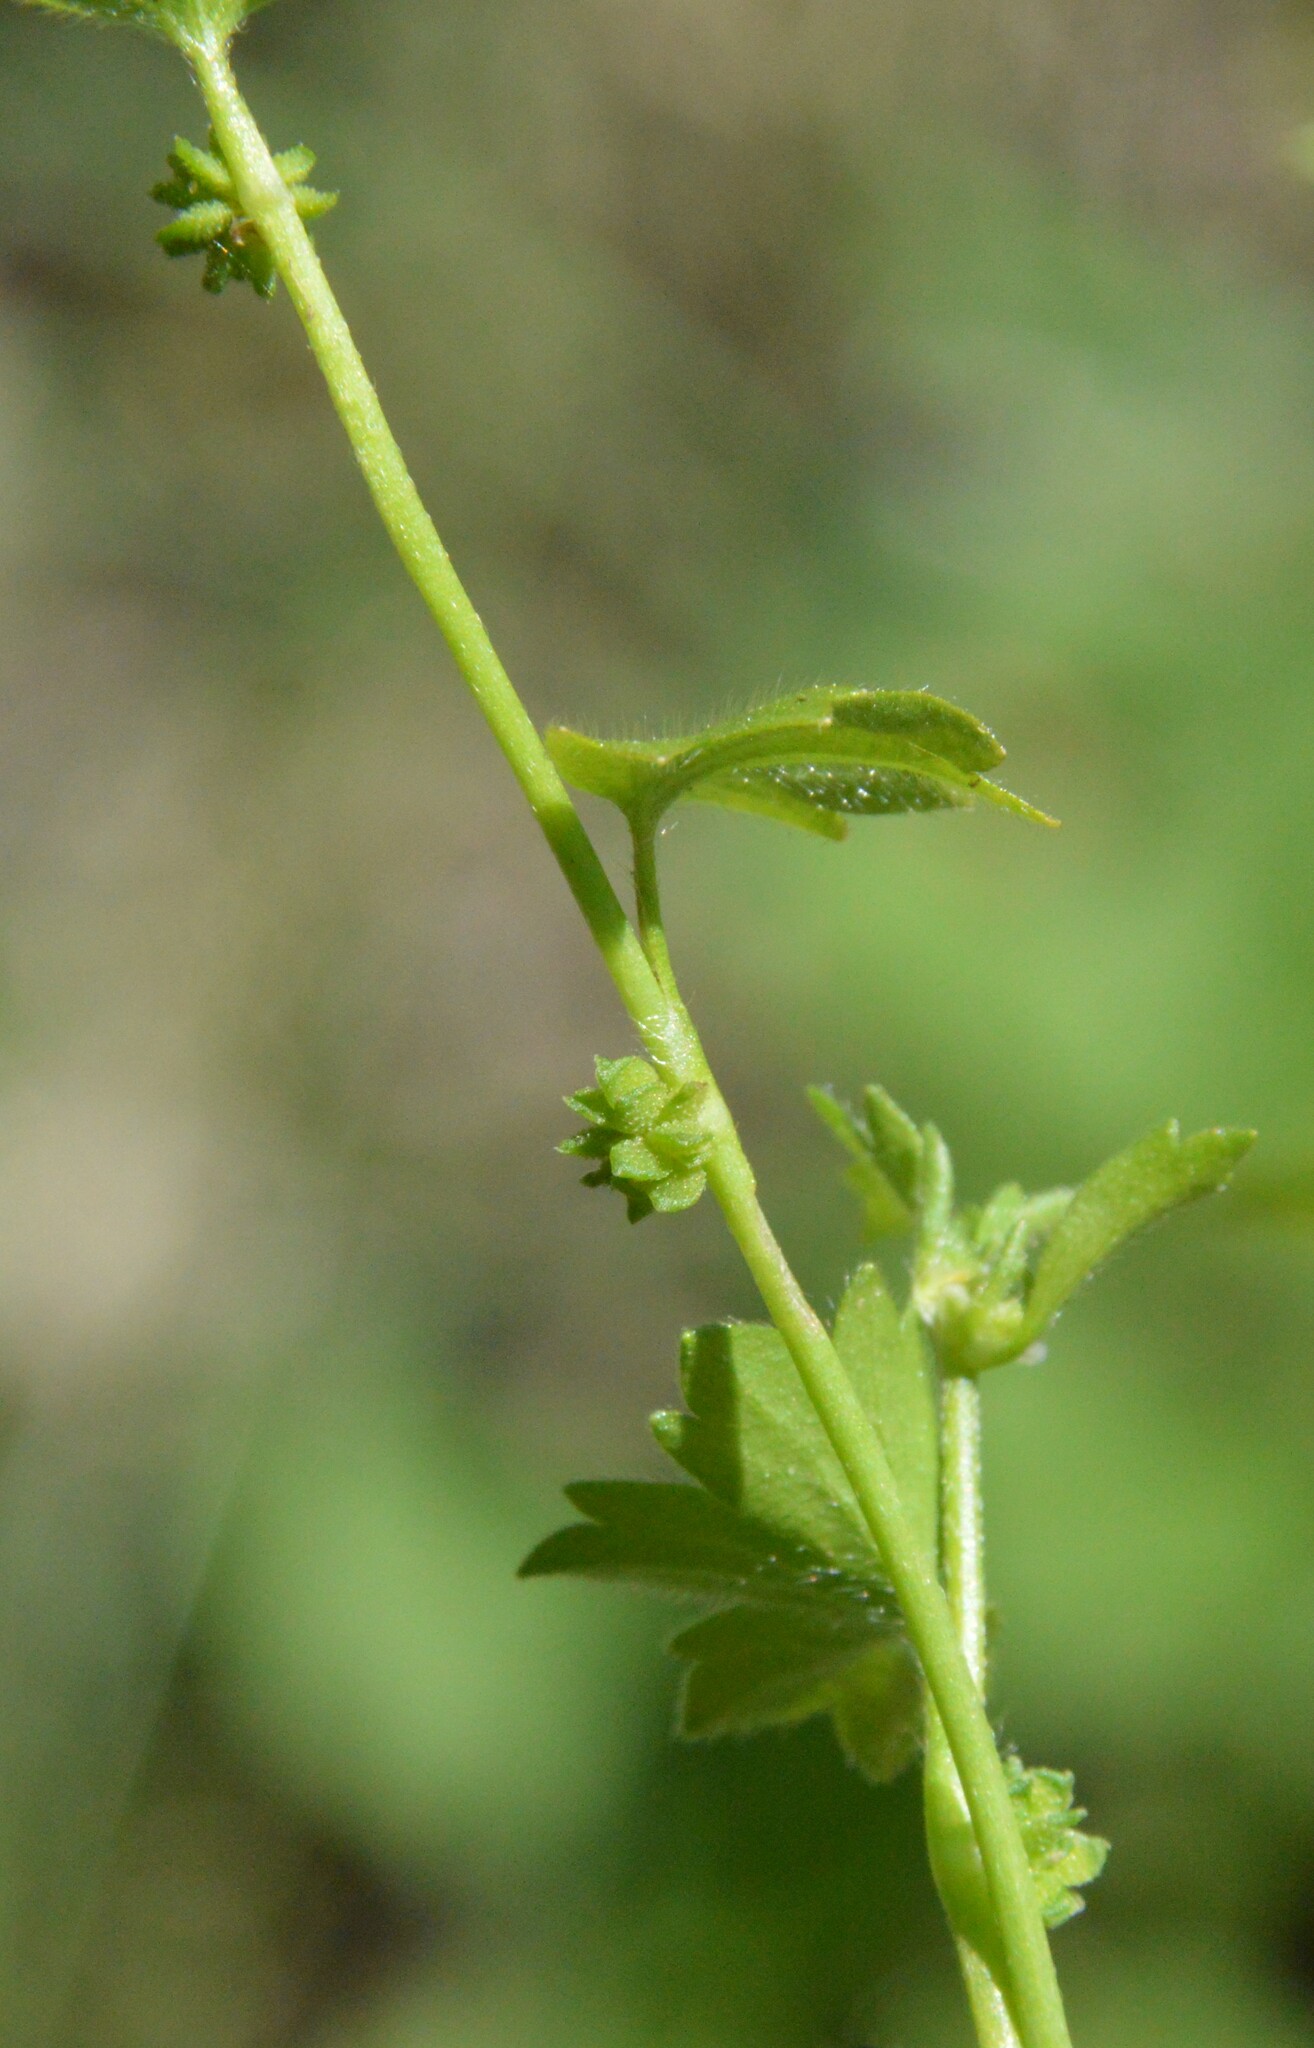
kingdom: Plantae
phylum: Tracheophyta
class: Magnoliopsida
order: Ranunculales
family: Ranunculaceae
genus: Ranunculus
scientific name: Ranunculus platensis
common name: Prairie buttercup
